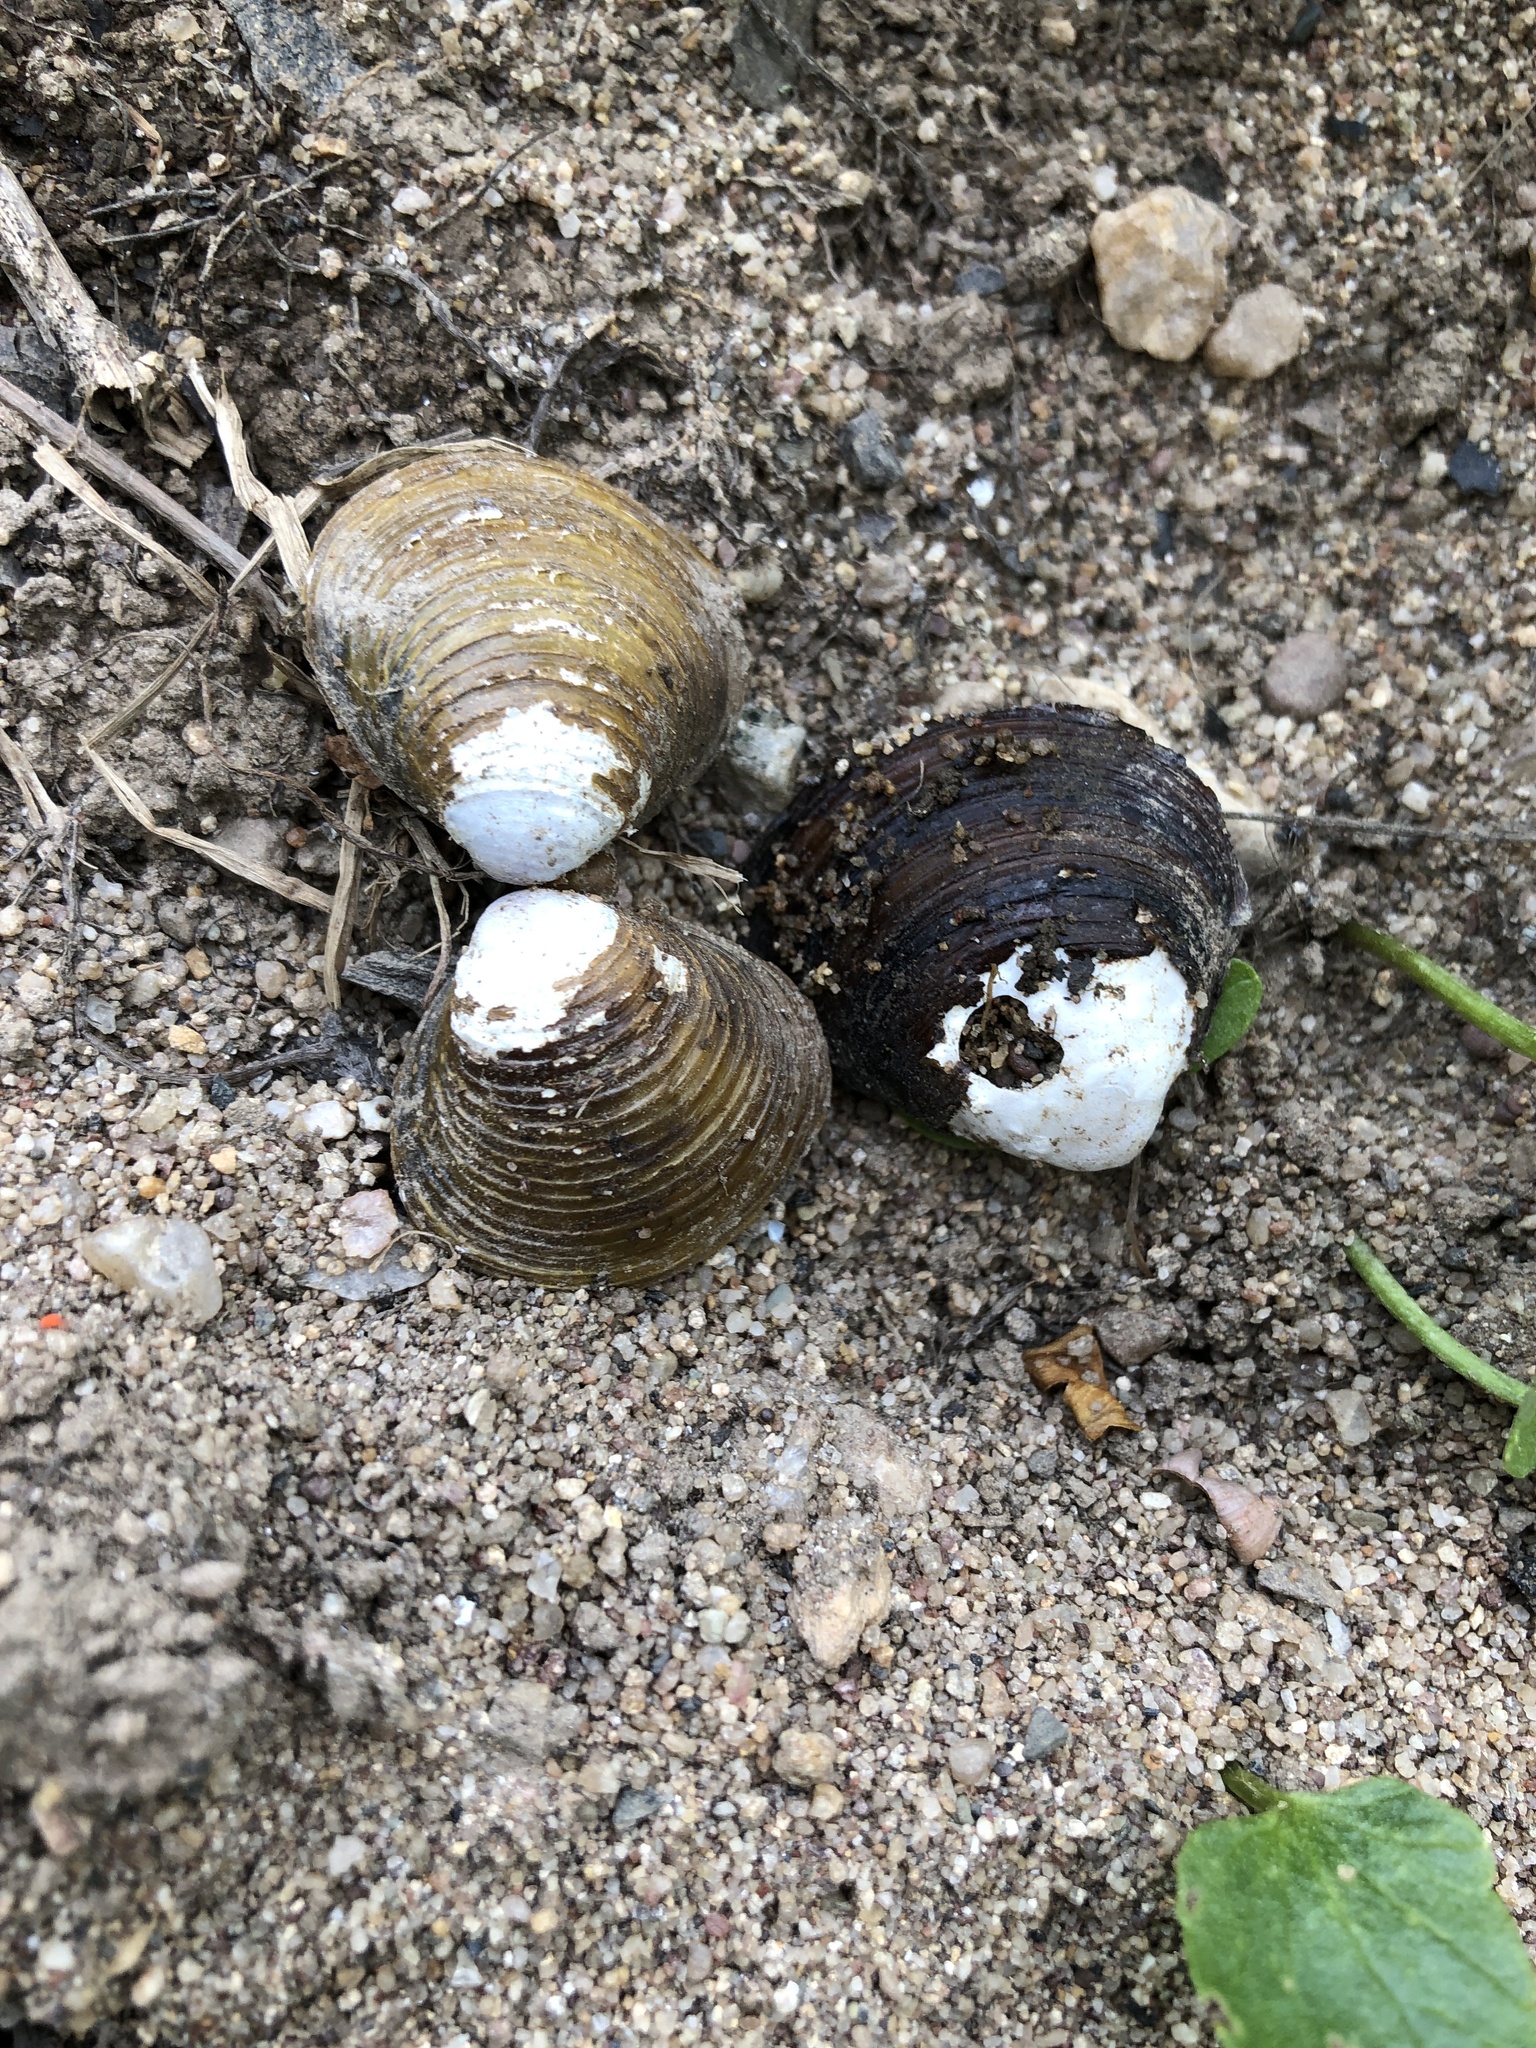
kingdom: Animalia
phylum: Mollusca
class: Bivalvia
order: Venerida
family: Cyrenidae
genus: Corbicula
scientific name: Corbicula fluminea
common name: Asian clam
